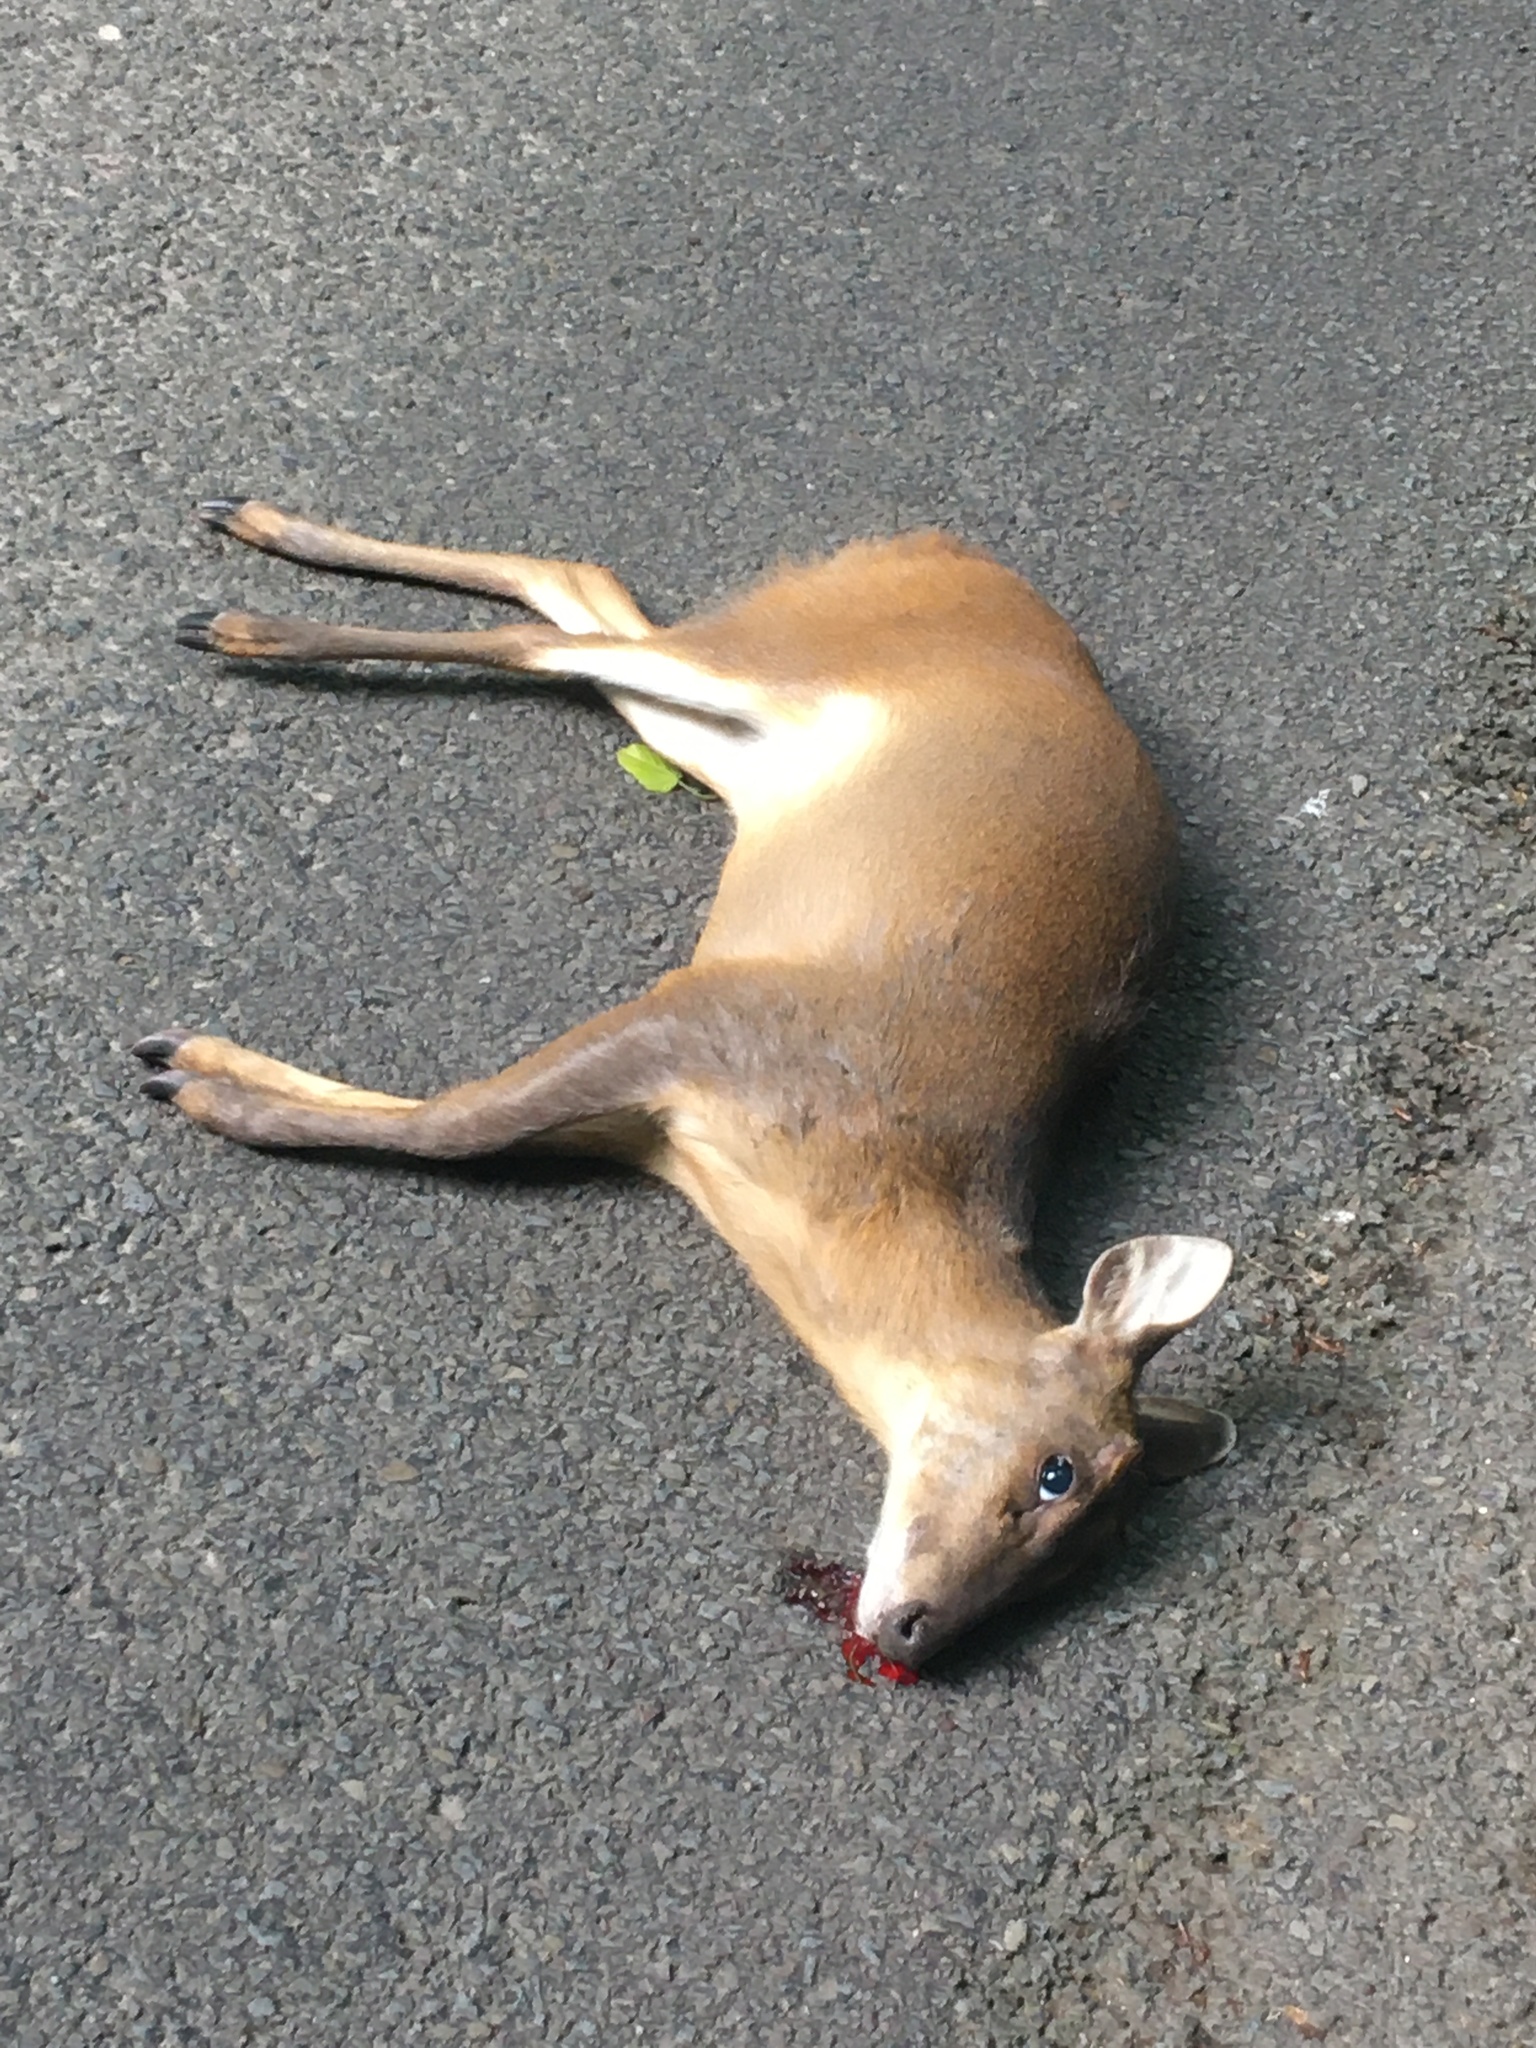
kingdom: Animalia
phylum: Chordata
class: Mammalia
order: Artiodactyla
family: Cervidae
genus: Muntiacus
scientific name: Muntiacus reevesi
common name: Reeves' muntjac
